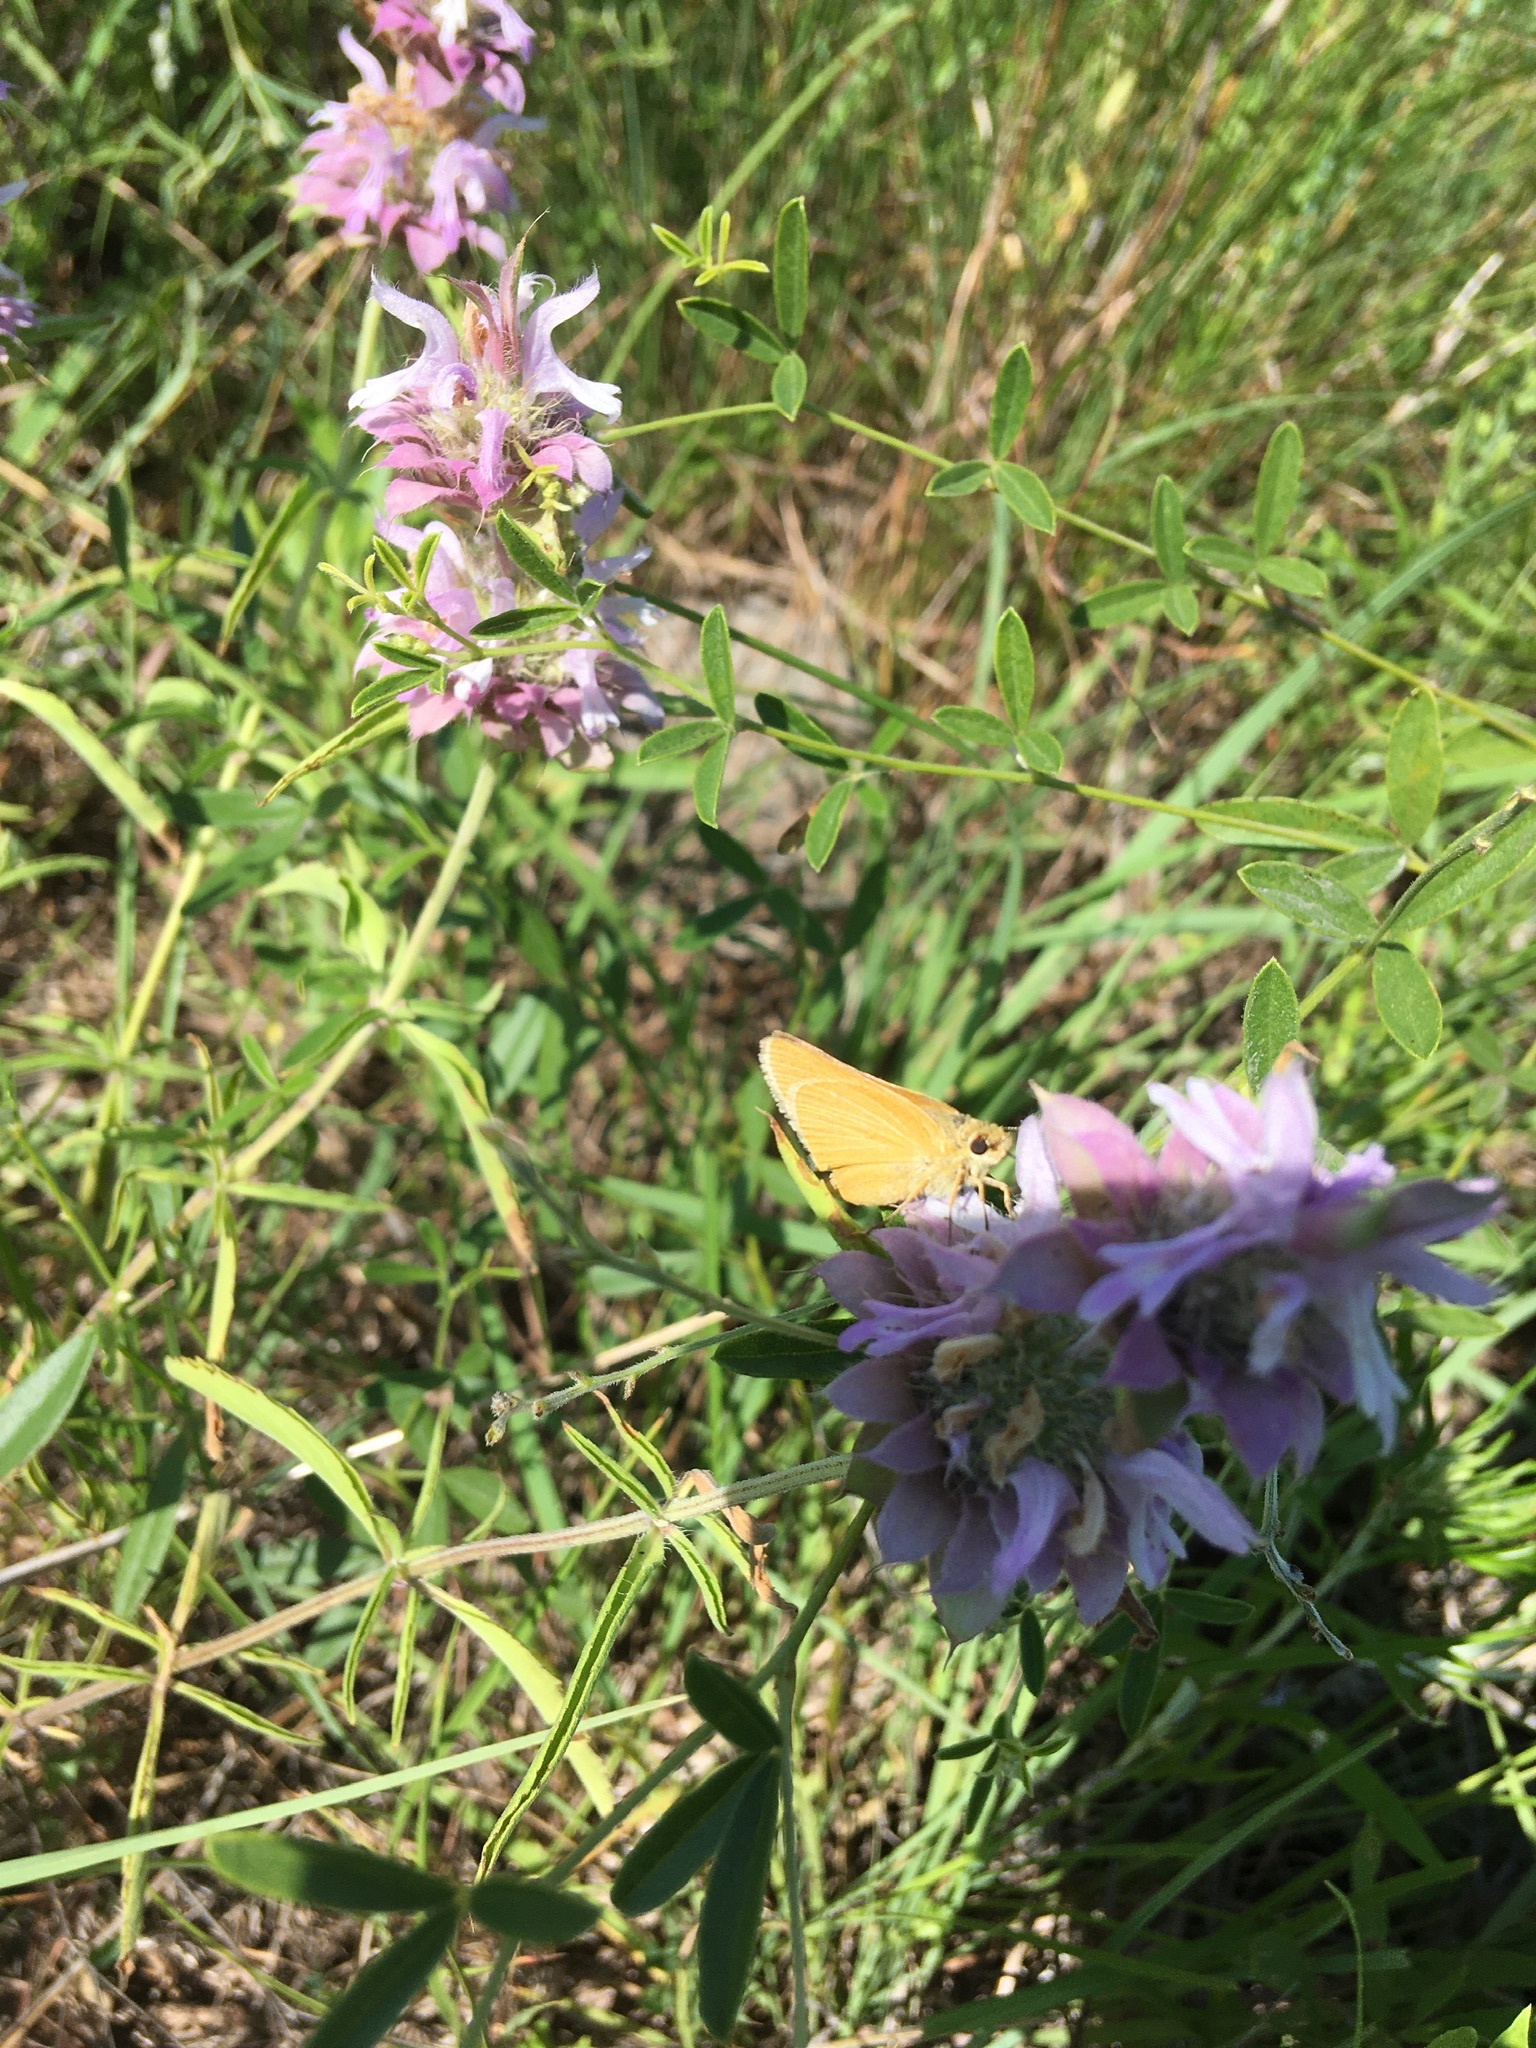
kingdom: Animalia
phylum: Arthropoda
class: Insecta
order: Lepidoptera
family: Hesperiidae
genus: Atrytone
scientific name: Atrytone arogos
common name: Arogos skipper
